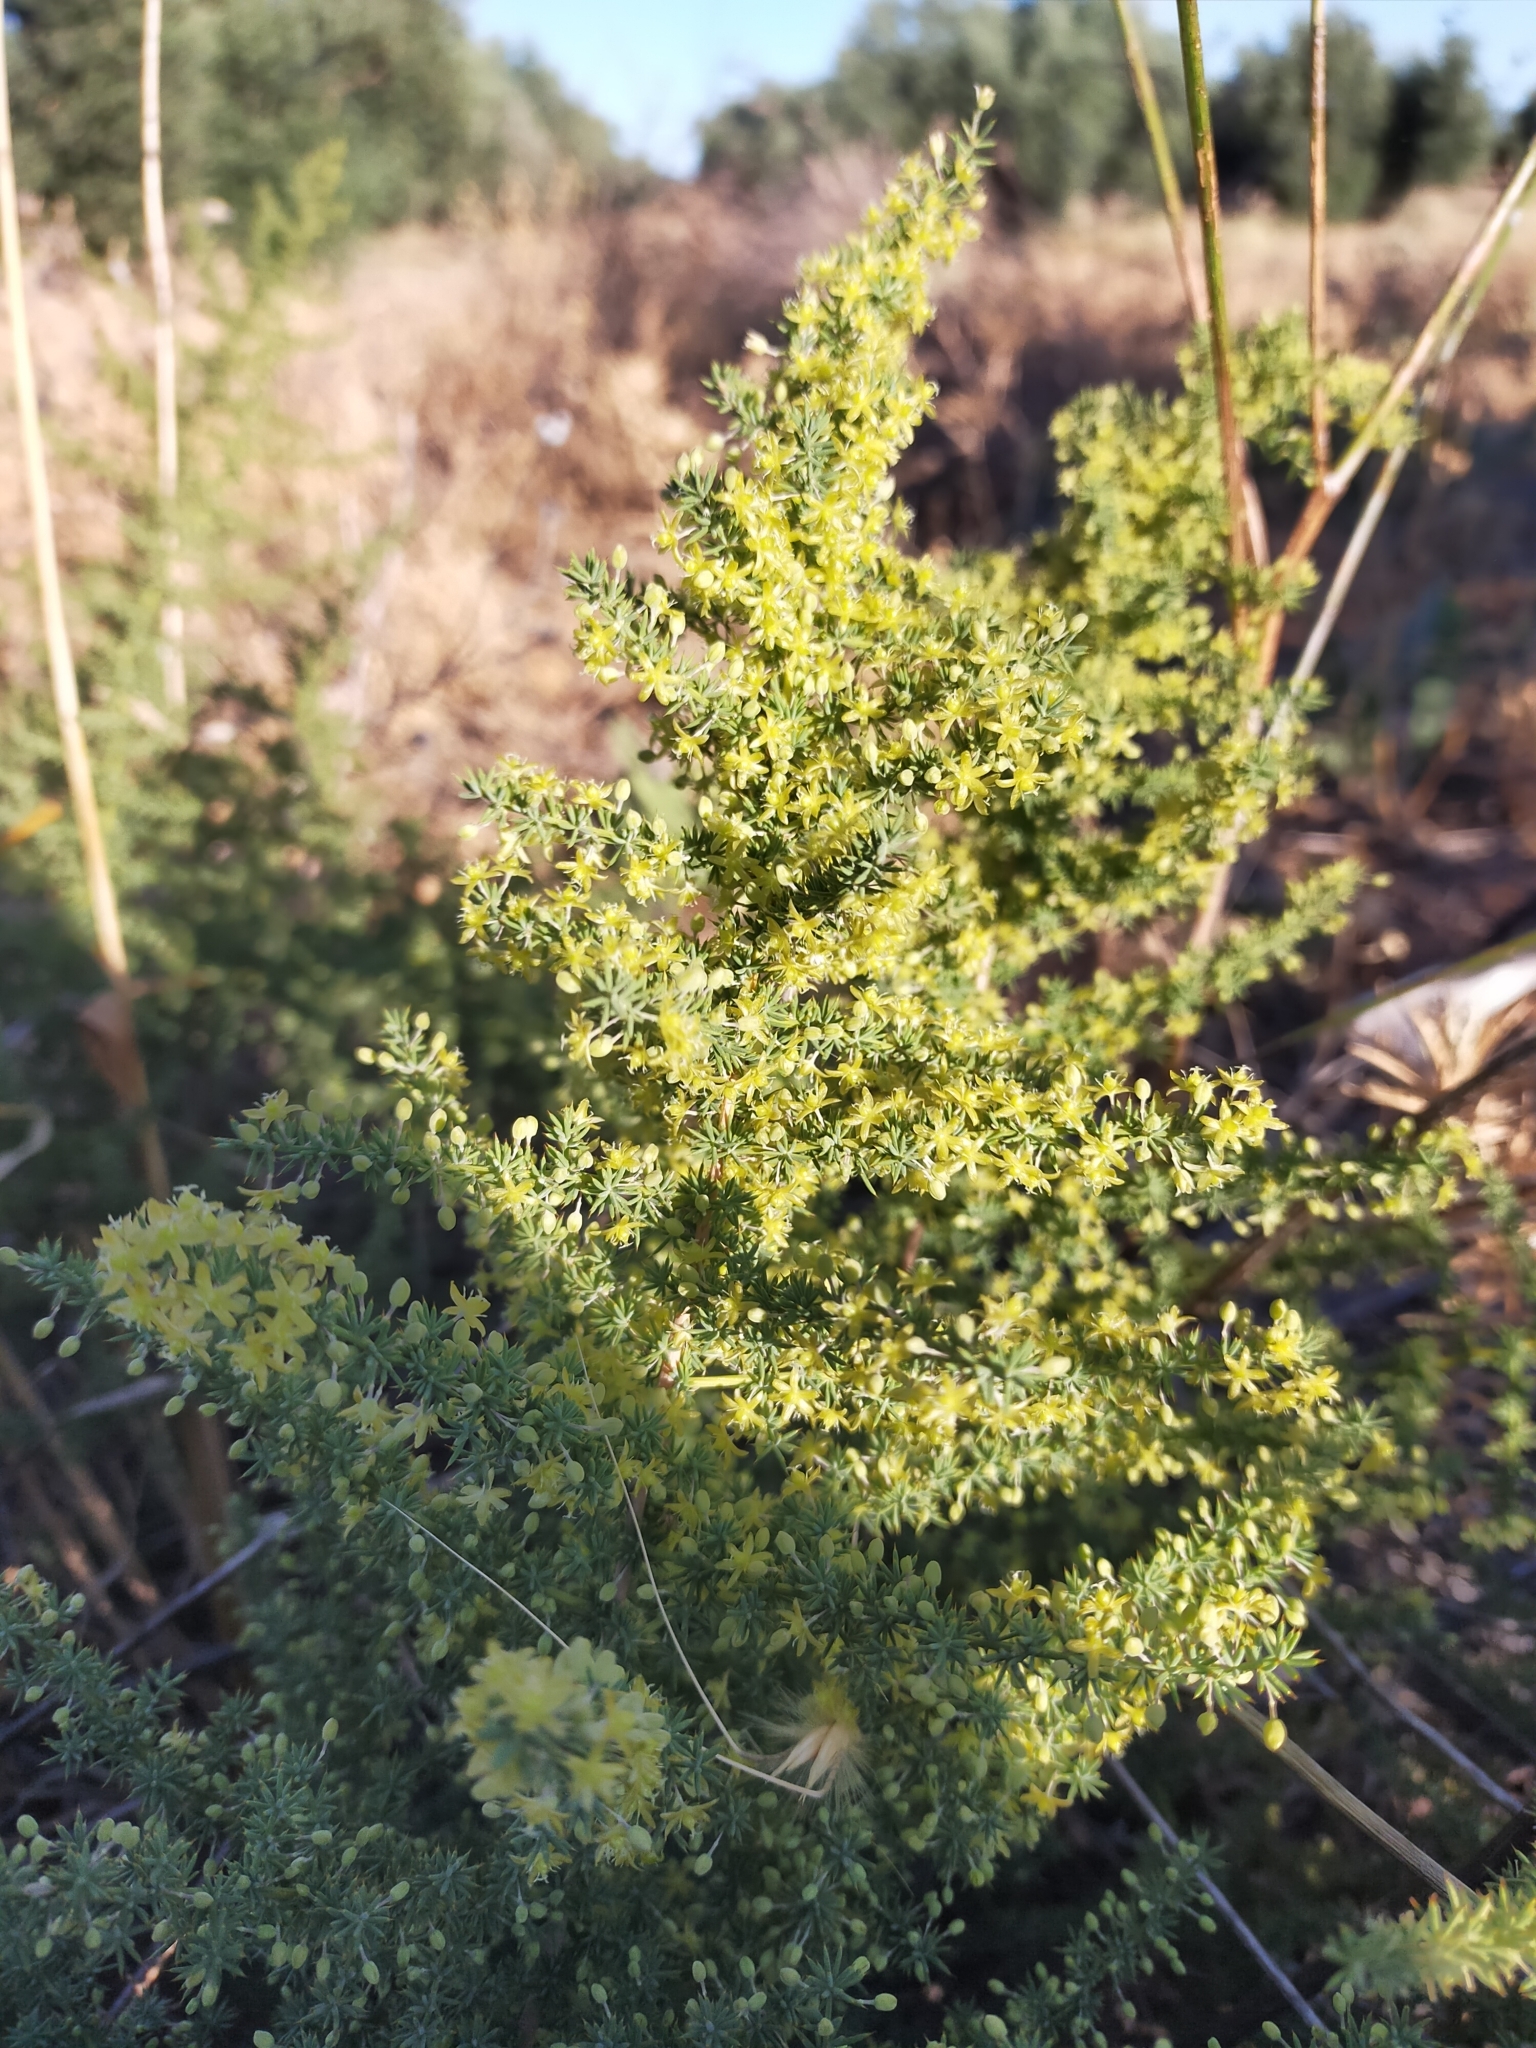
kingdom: Plantae
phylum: Tracheophyta
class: Liliopsida
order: Asparagales
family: Asparagaceae
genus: Asparagus
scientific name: Asparagus acutifolius
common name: Wild asparagus
